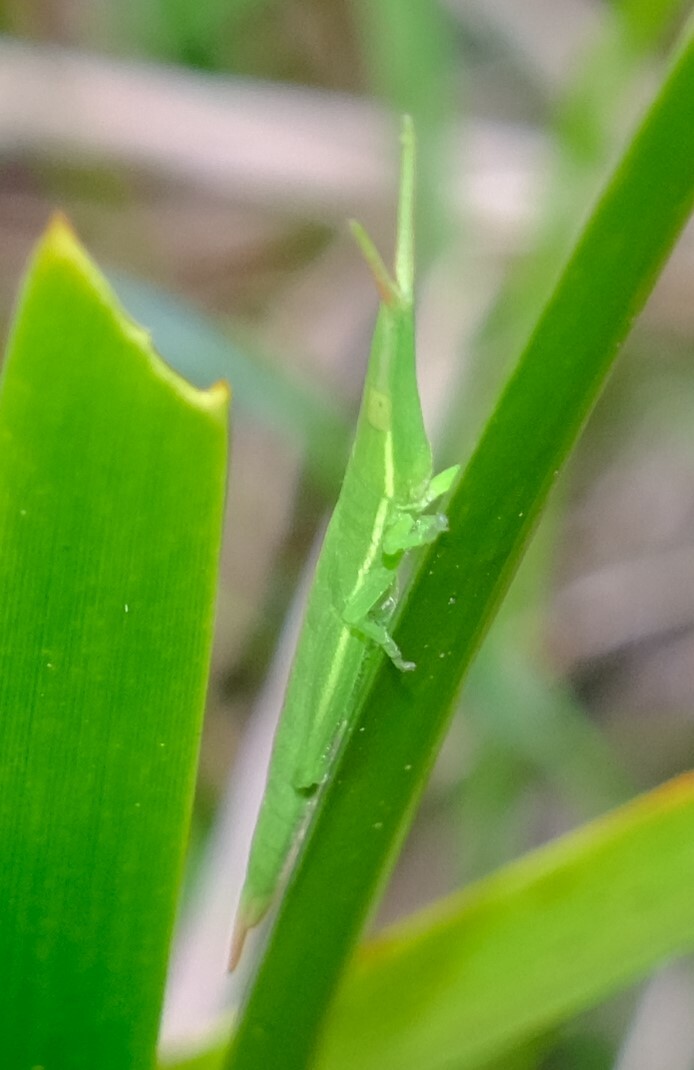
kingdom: Animalia
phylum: Arthropoda
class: Insecta
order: Orthoptera
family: Pyrgomorphidae
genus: Psednura
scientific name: Psednura pedestris
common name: Common psednura
